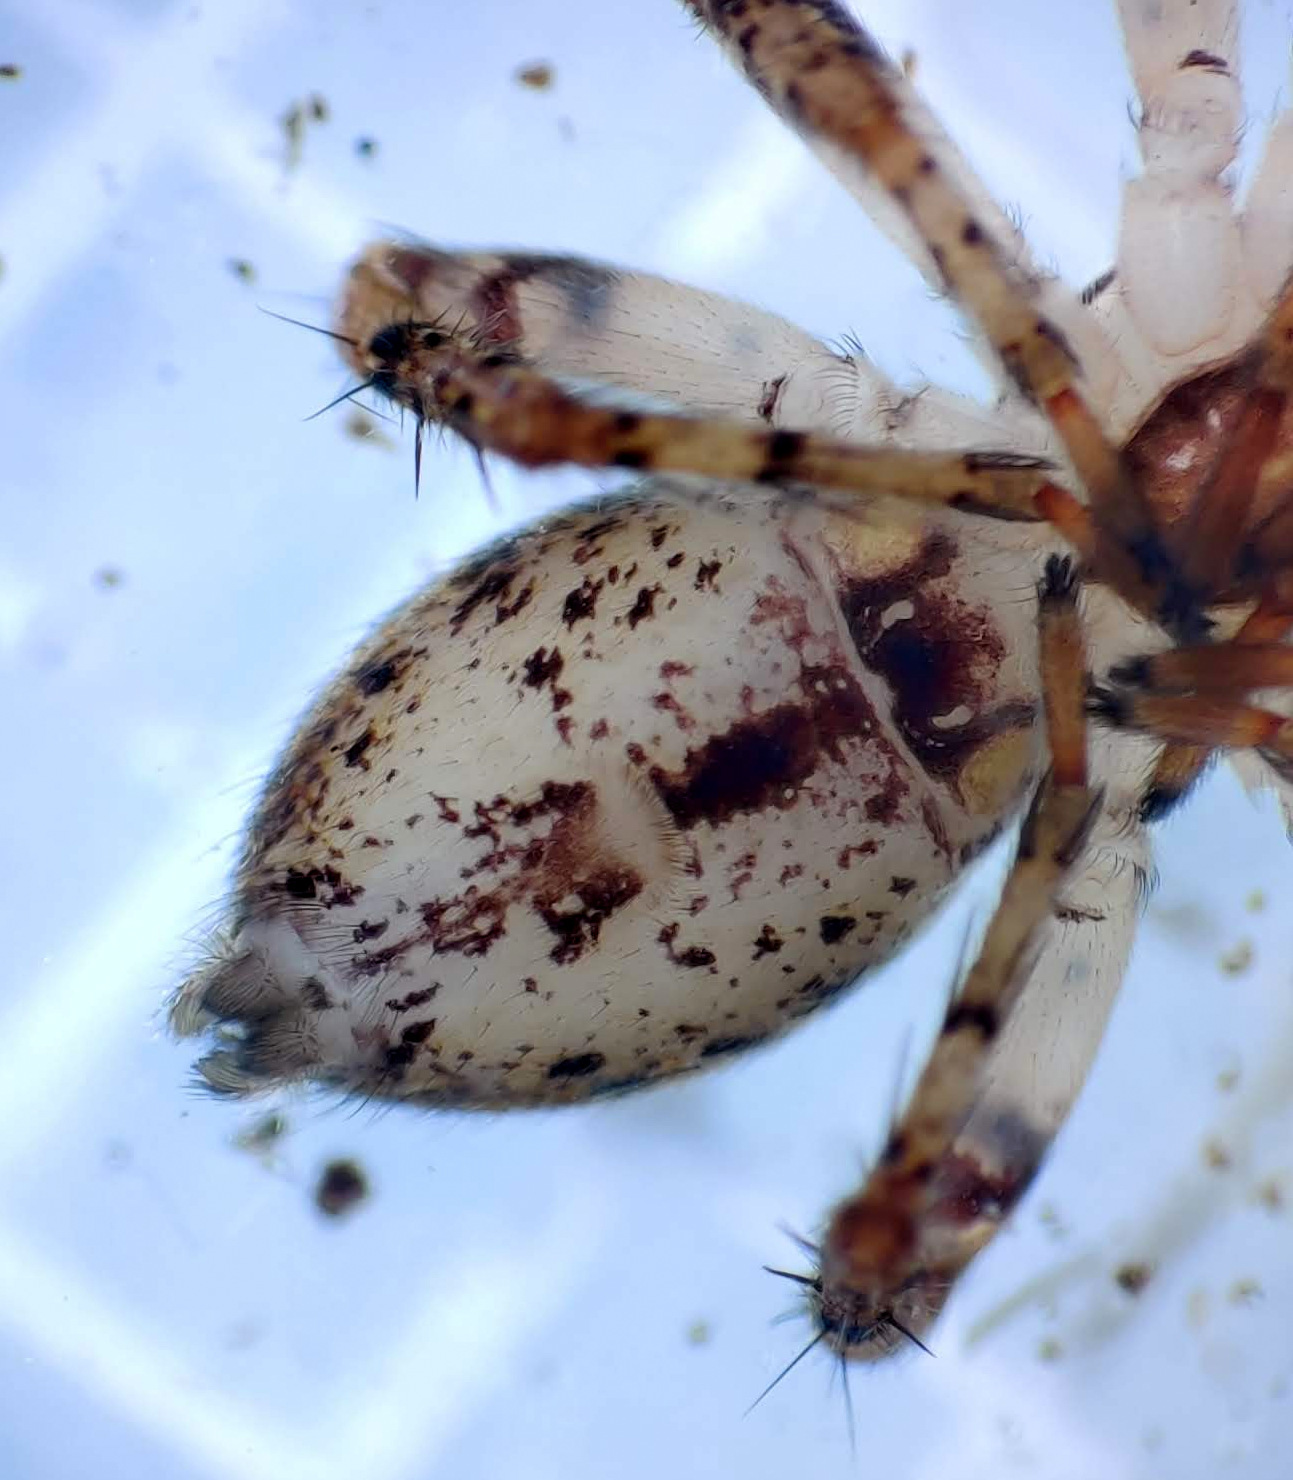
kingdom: Animalia
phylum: Arthropoda
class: Arachnida
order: Araneae
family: Anyphaenidae
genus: Anyphaena
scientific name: Anyphaena accentuata
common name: Buzzing spider
